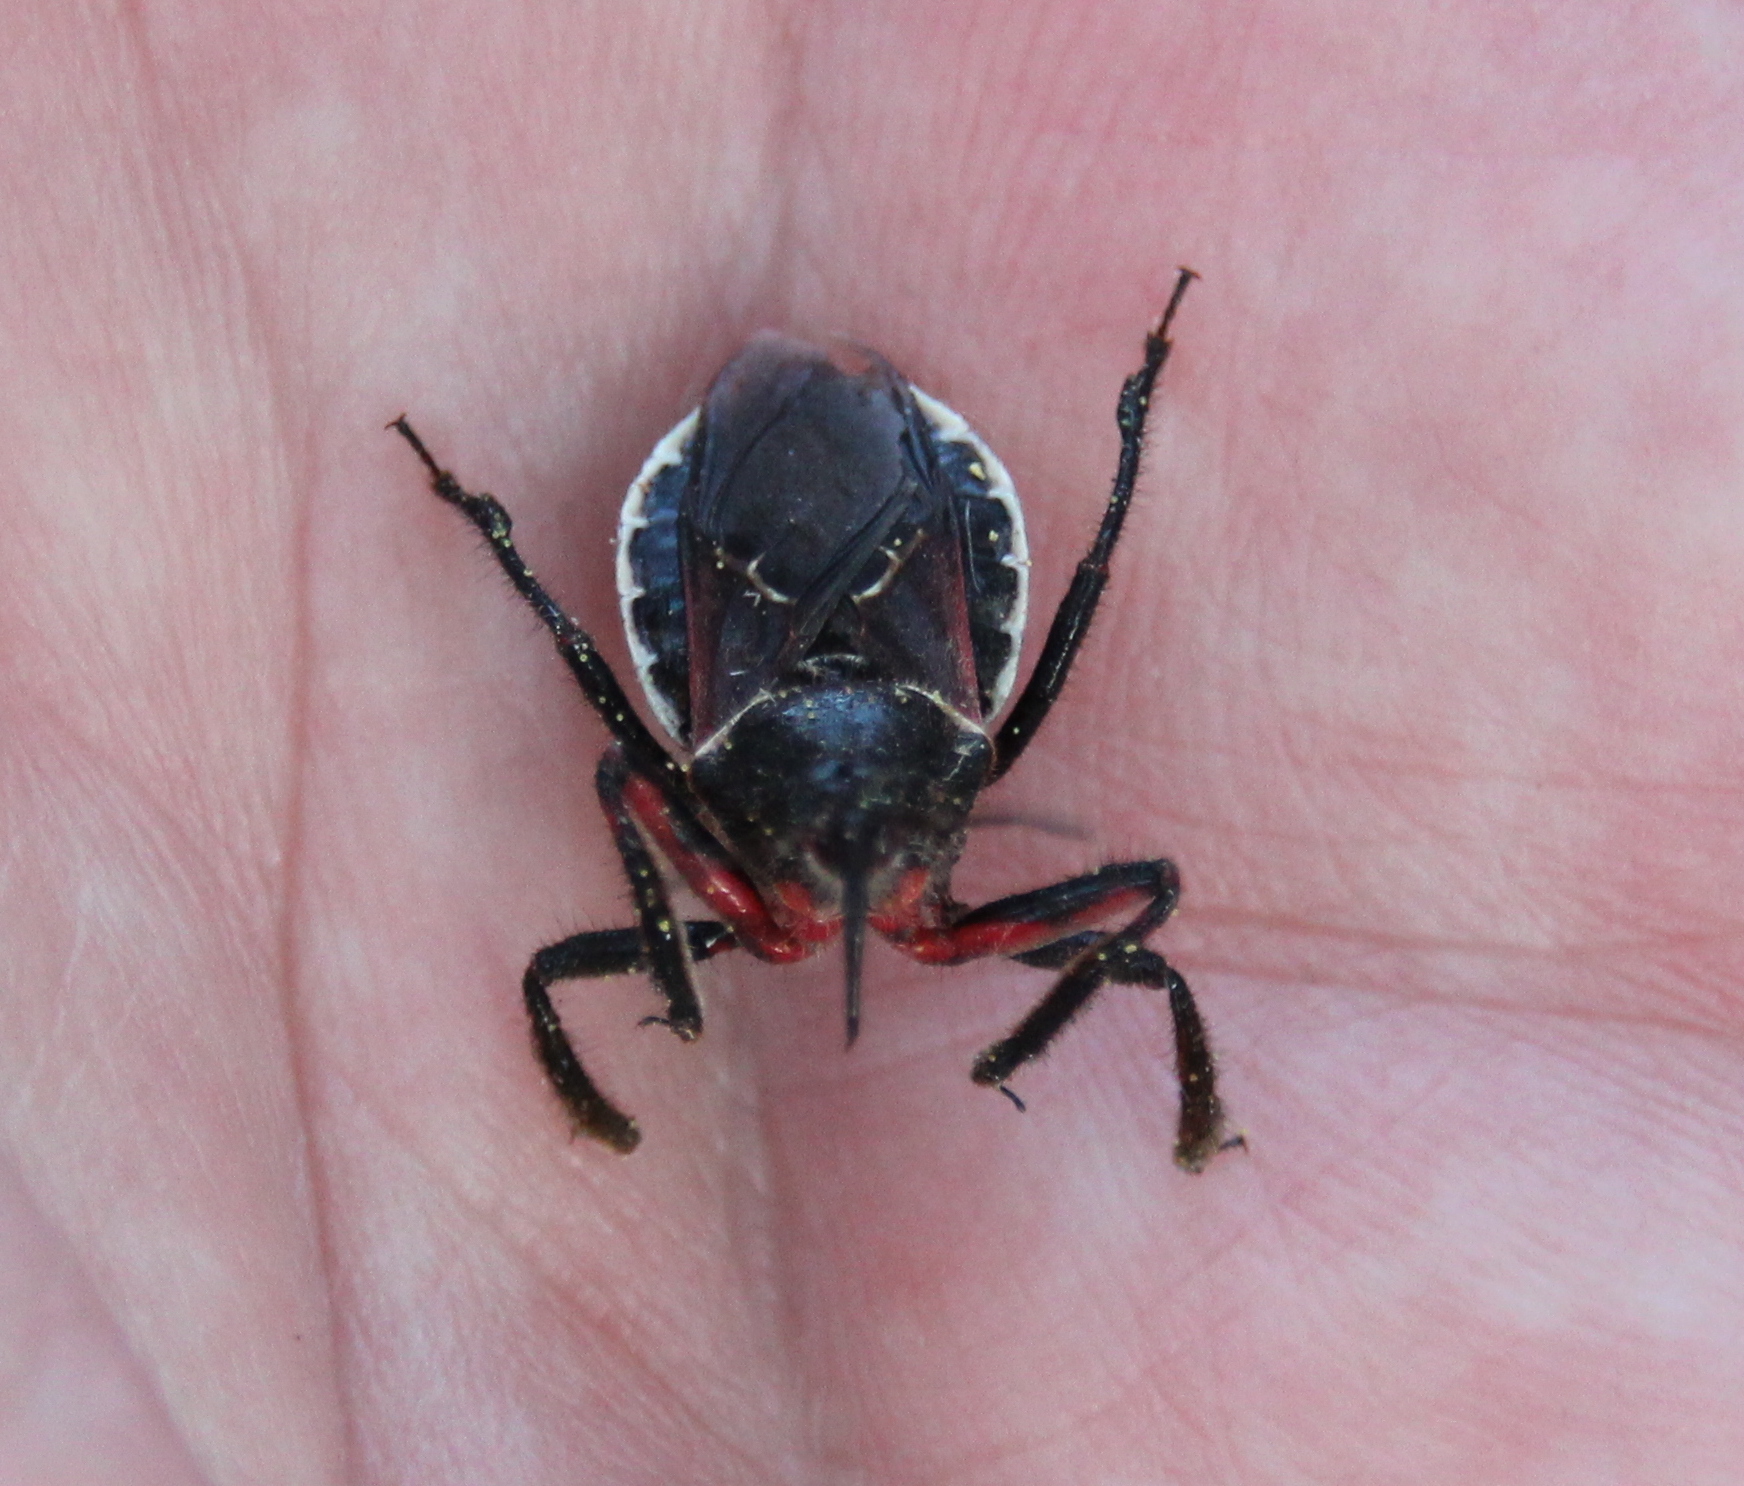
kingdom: Animalia
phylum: Arthropoda
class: Insecta
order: Hemiptera
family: Reduviidae
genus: Apiomerus
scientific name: Apiomerus californicus
